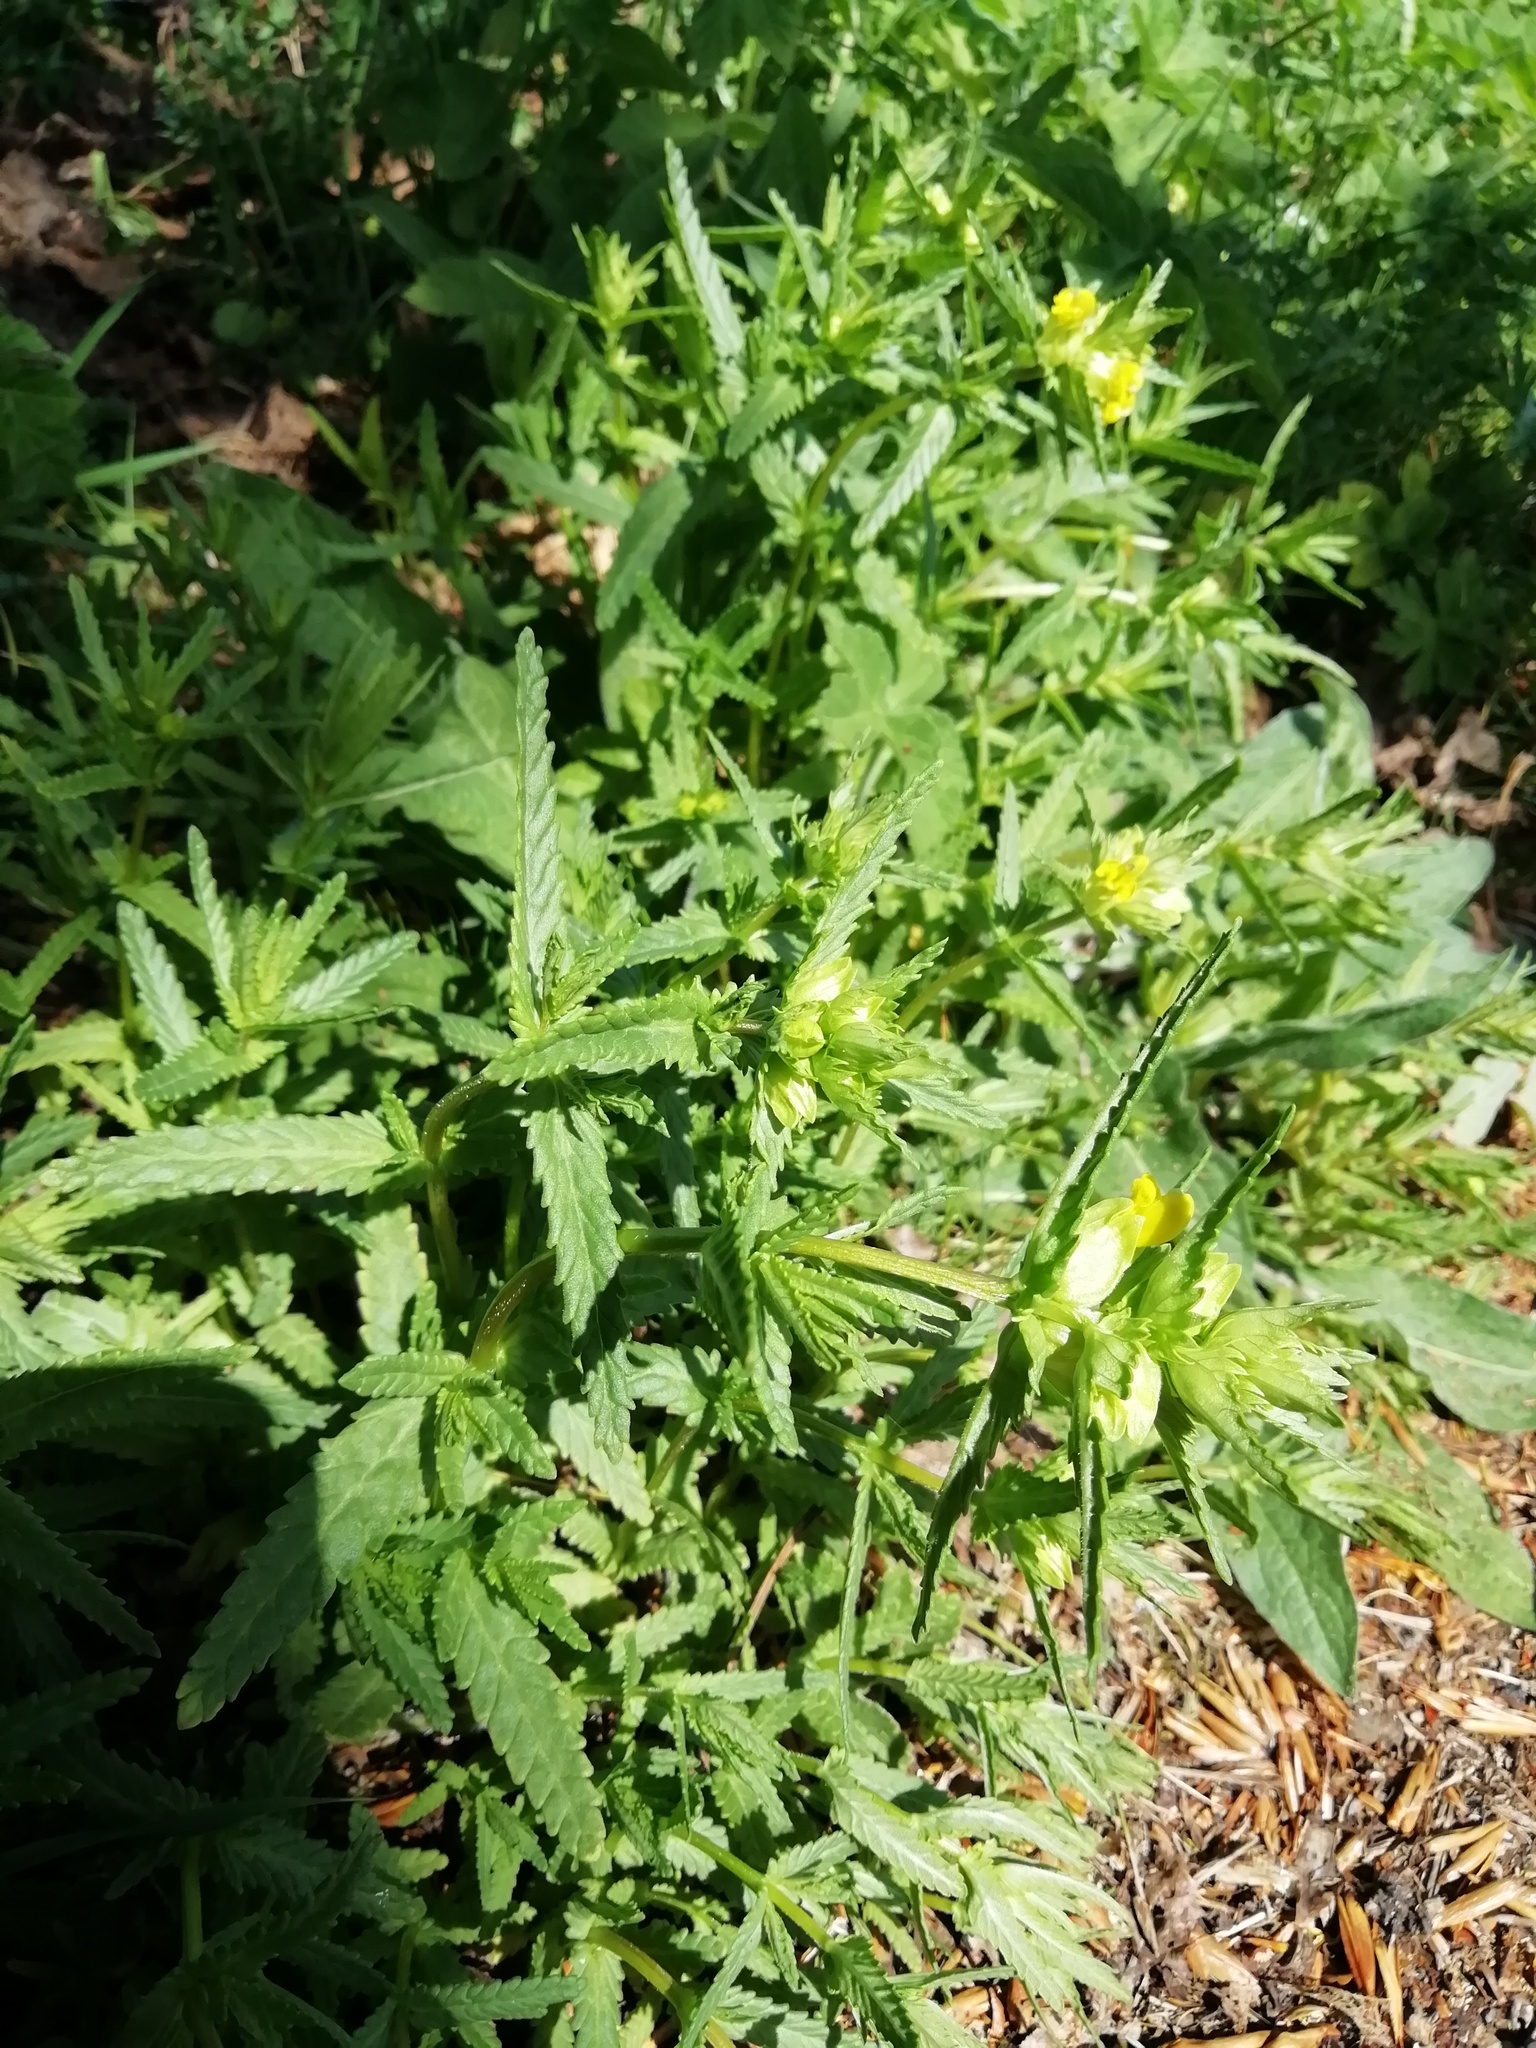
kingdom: Plantae
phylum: Tracheophyta
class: Magnoliopsida
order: Lamiales
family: Orobanchaceae
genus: Rhinanthus
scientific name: Rhinanthus minor
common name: Yellow-rattle
